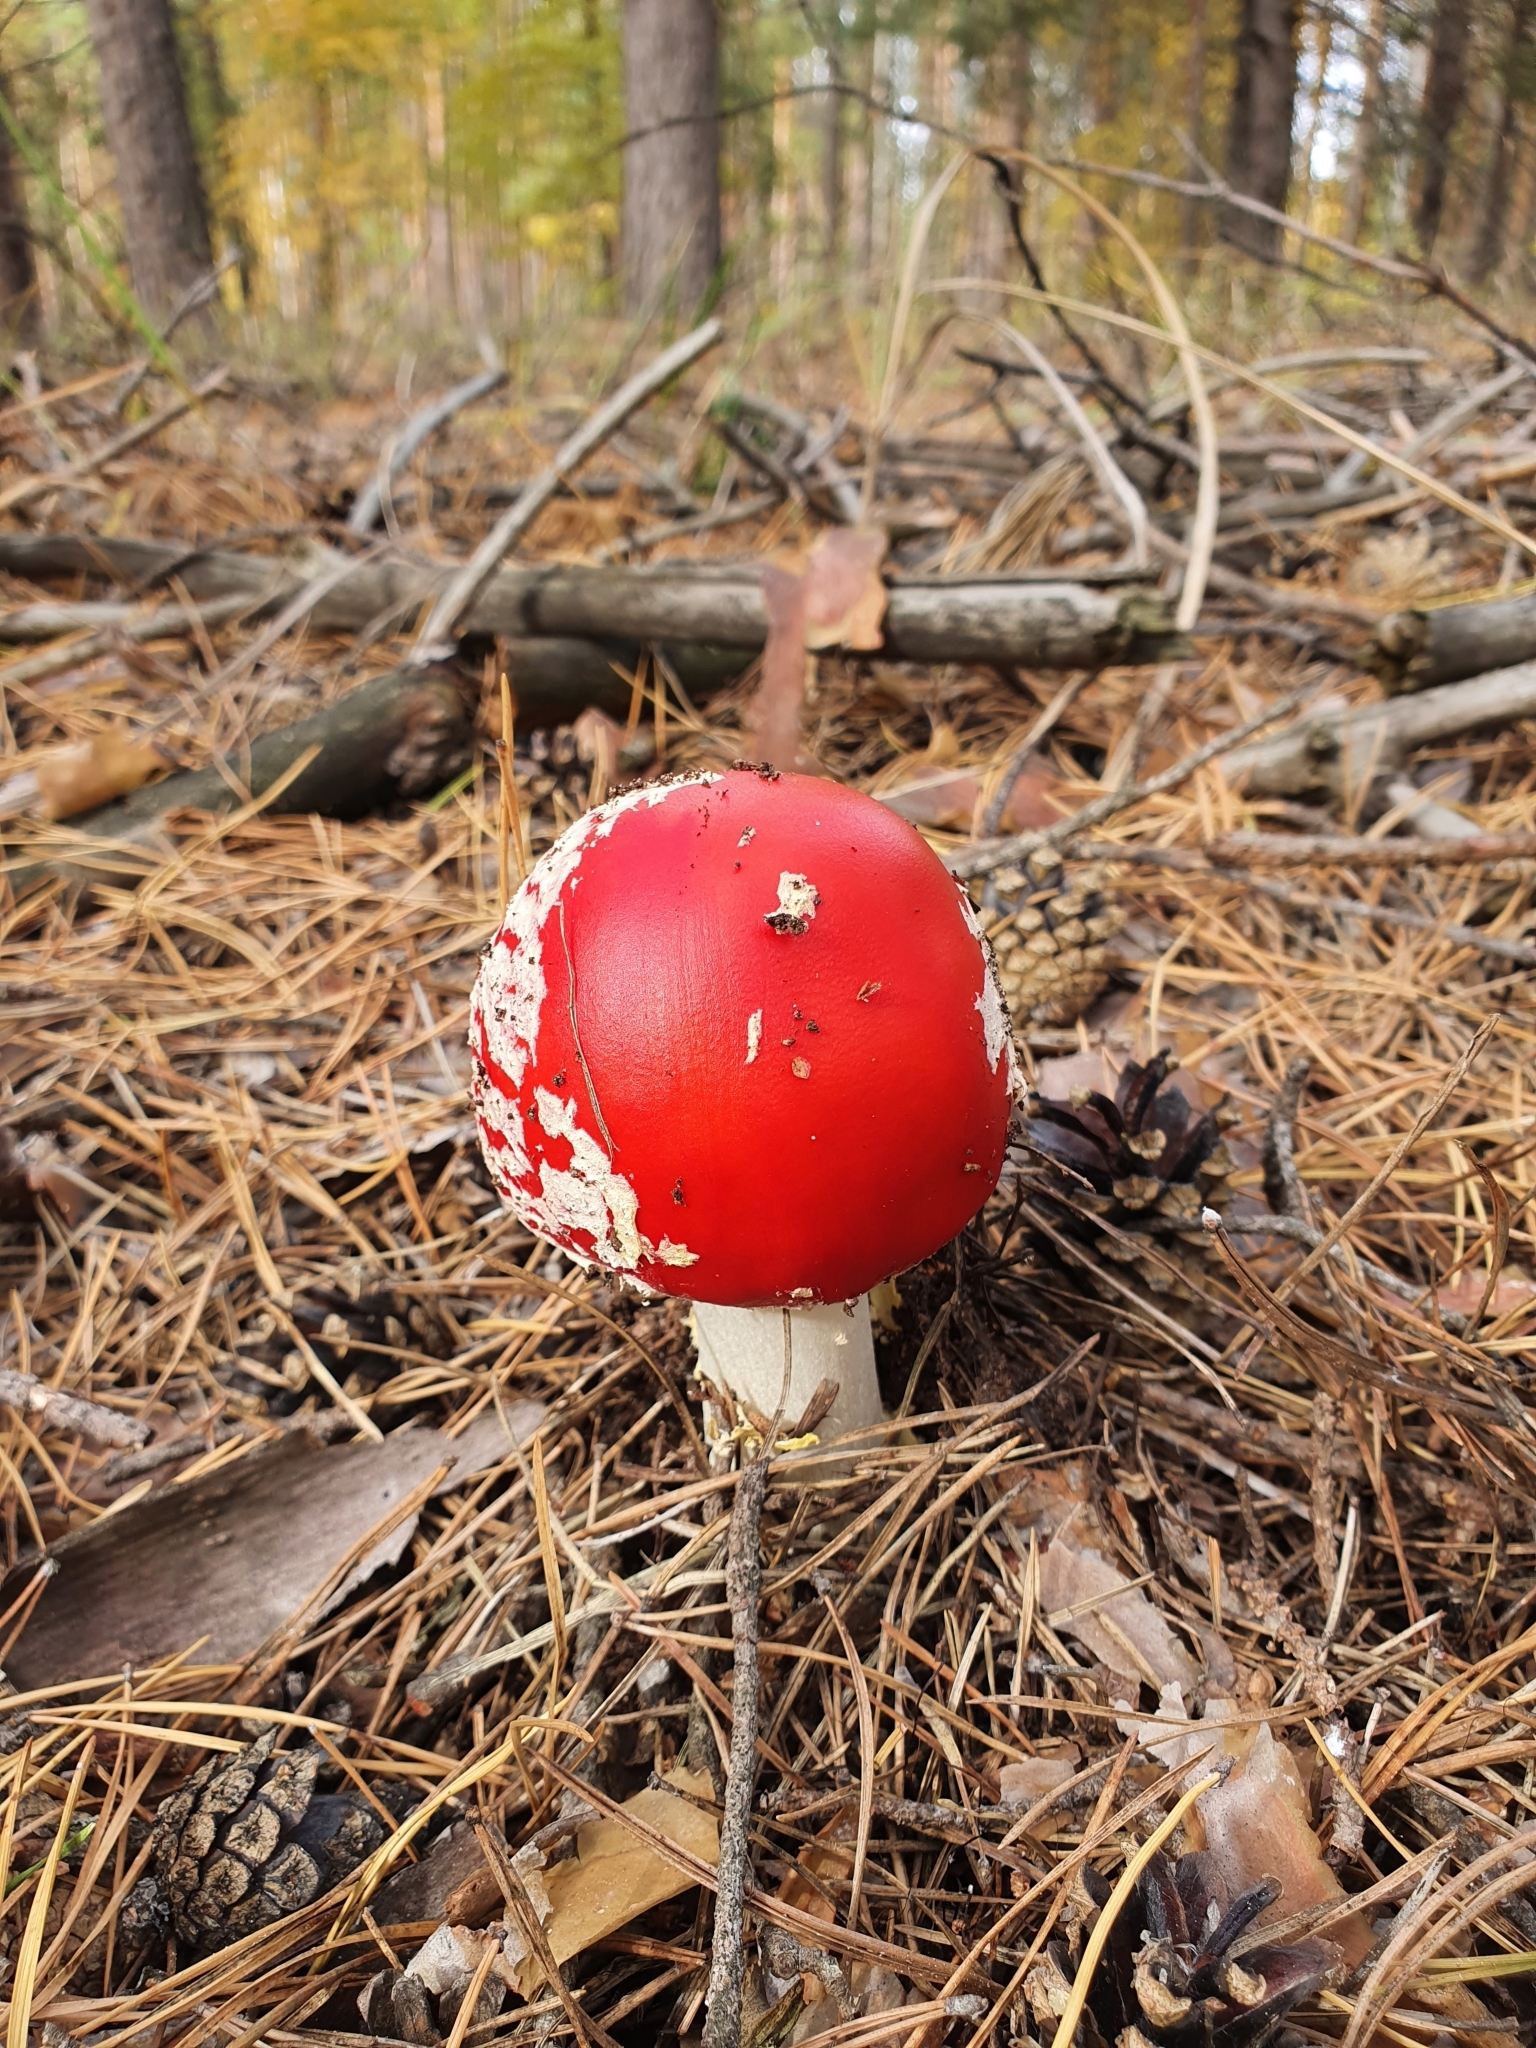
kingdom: Fungi
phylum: Basidiomycota
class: Agaricomycetes
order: Agaricales
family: Amanitaceae
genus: Amanita
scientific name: Amanita muscaria
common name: Fly agaric
